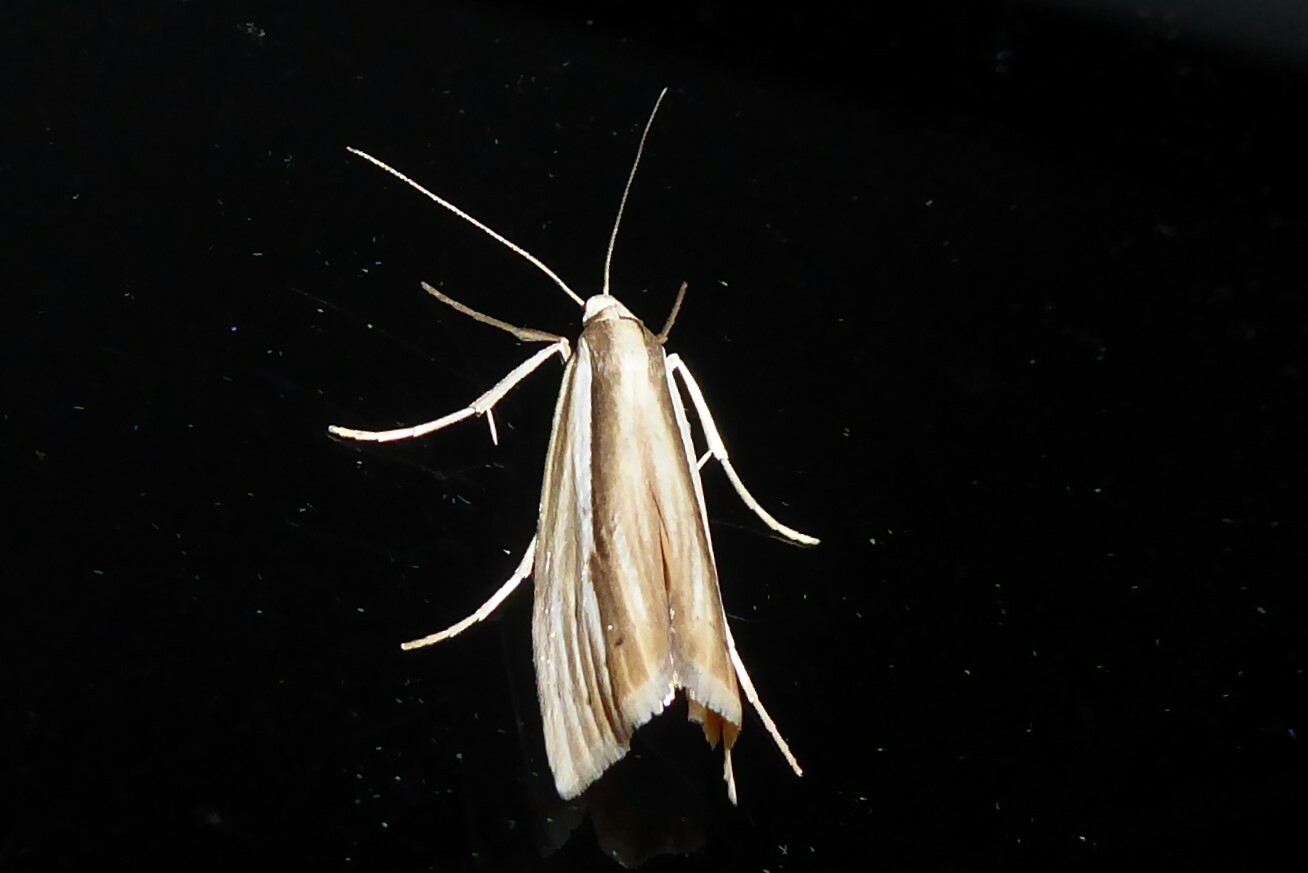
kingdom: Animalia
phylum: Arthropoda
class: Insecta
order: Lepidoptera
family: Crambidae
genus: Orocrambus
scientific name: Orocrambus ramosellus
